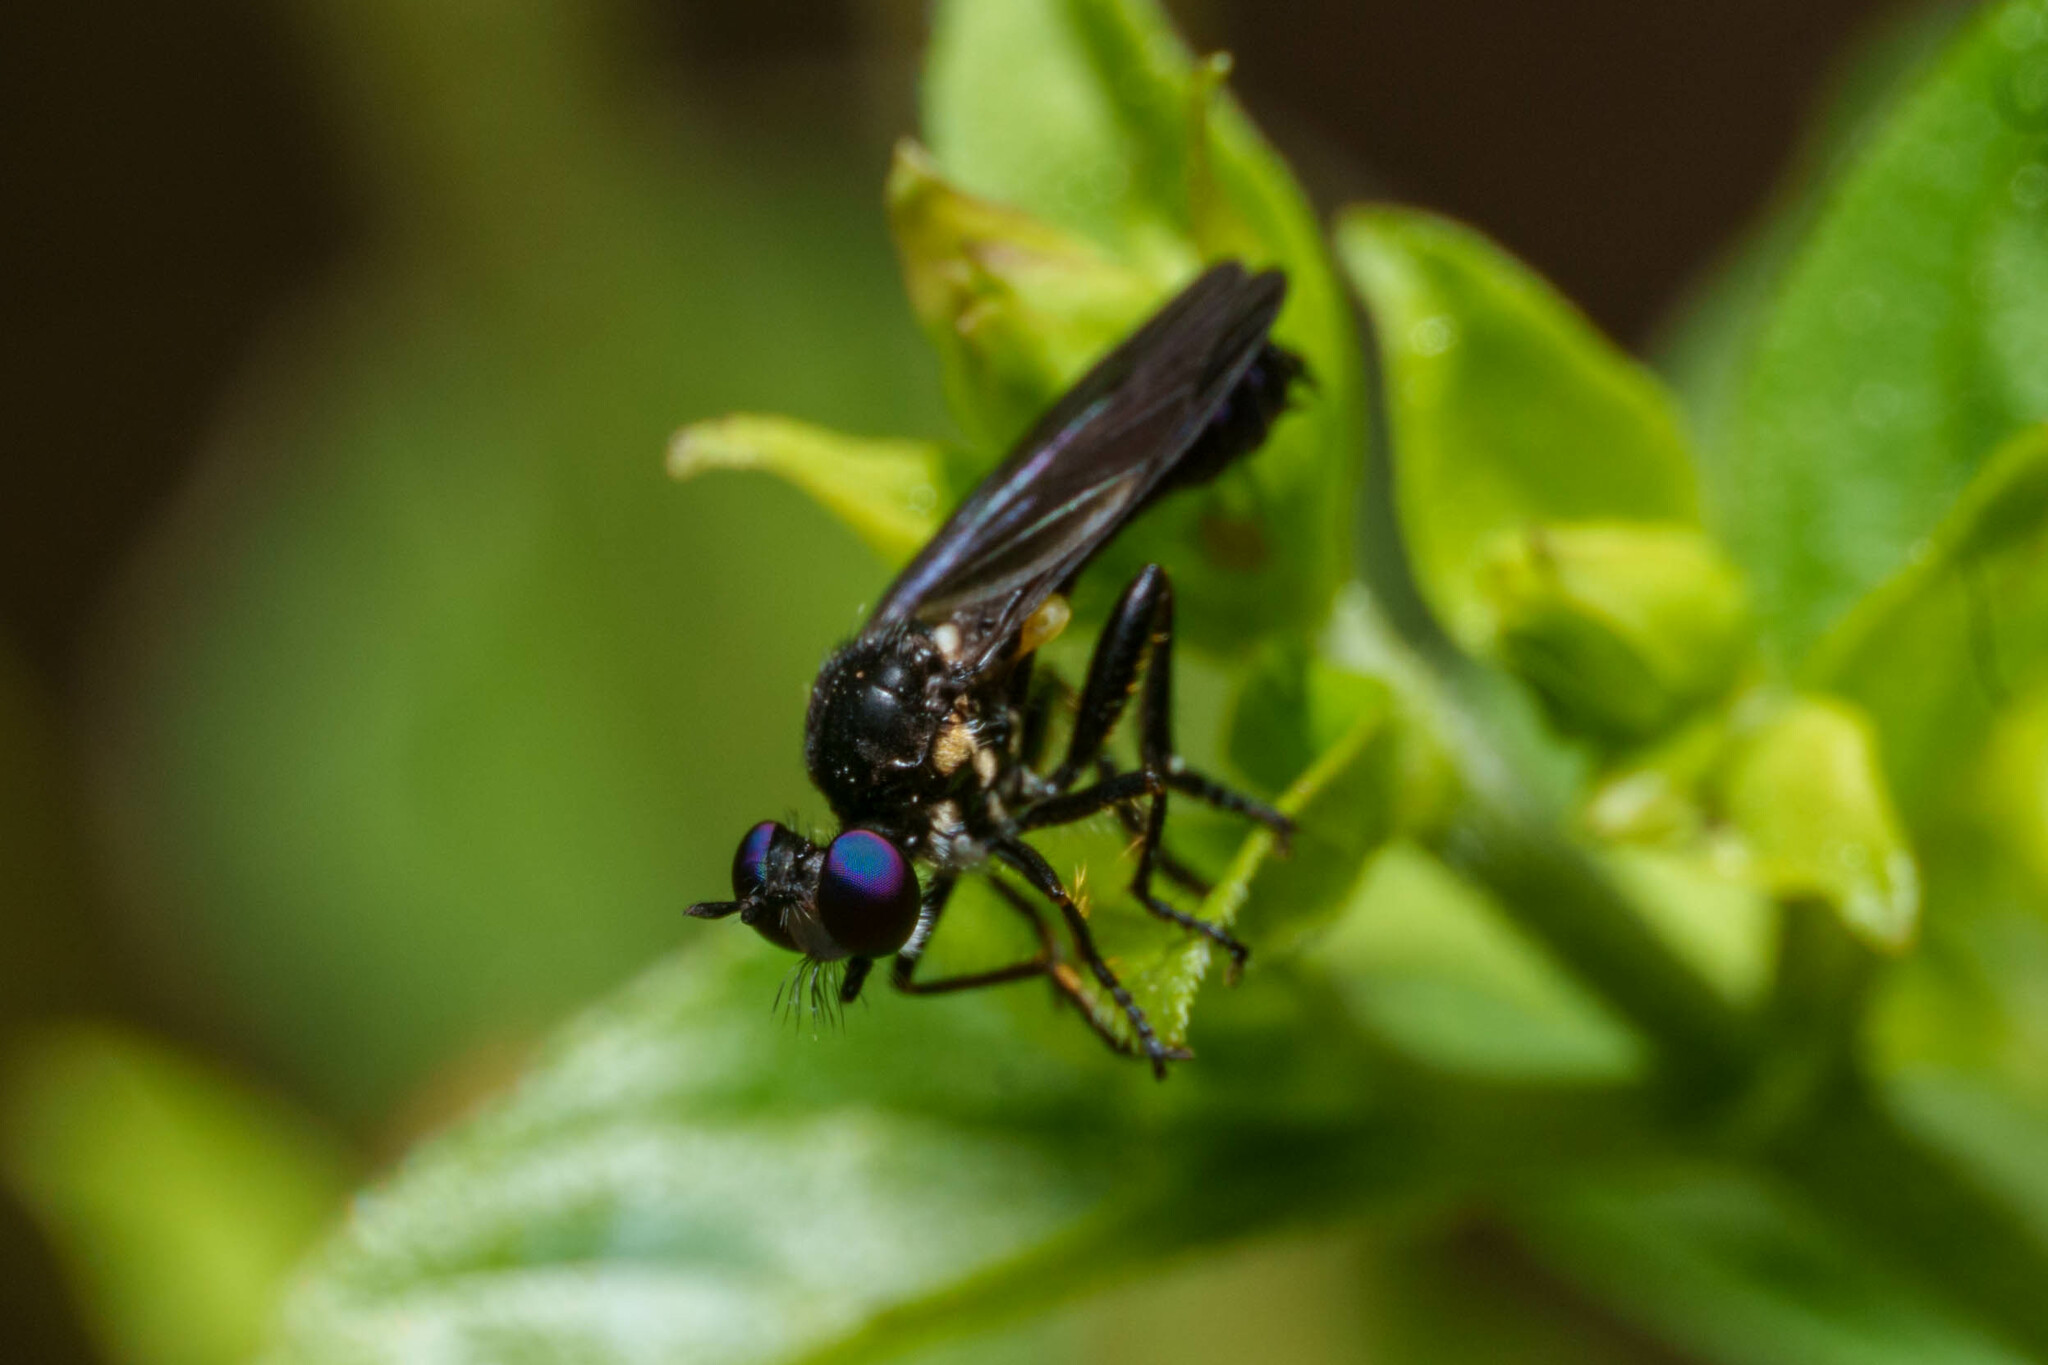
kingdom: Animalia
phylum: Arthropoda
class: Insecta
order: Diptera
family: Asilidae
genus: Eudioctria
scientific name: Eudioctria sackeni
